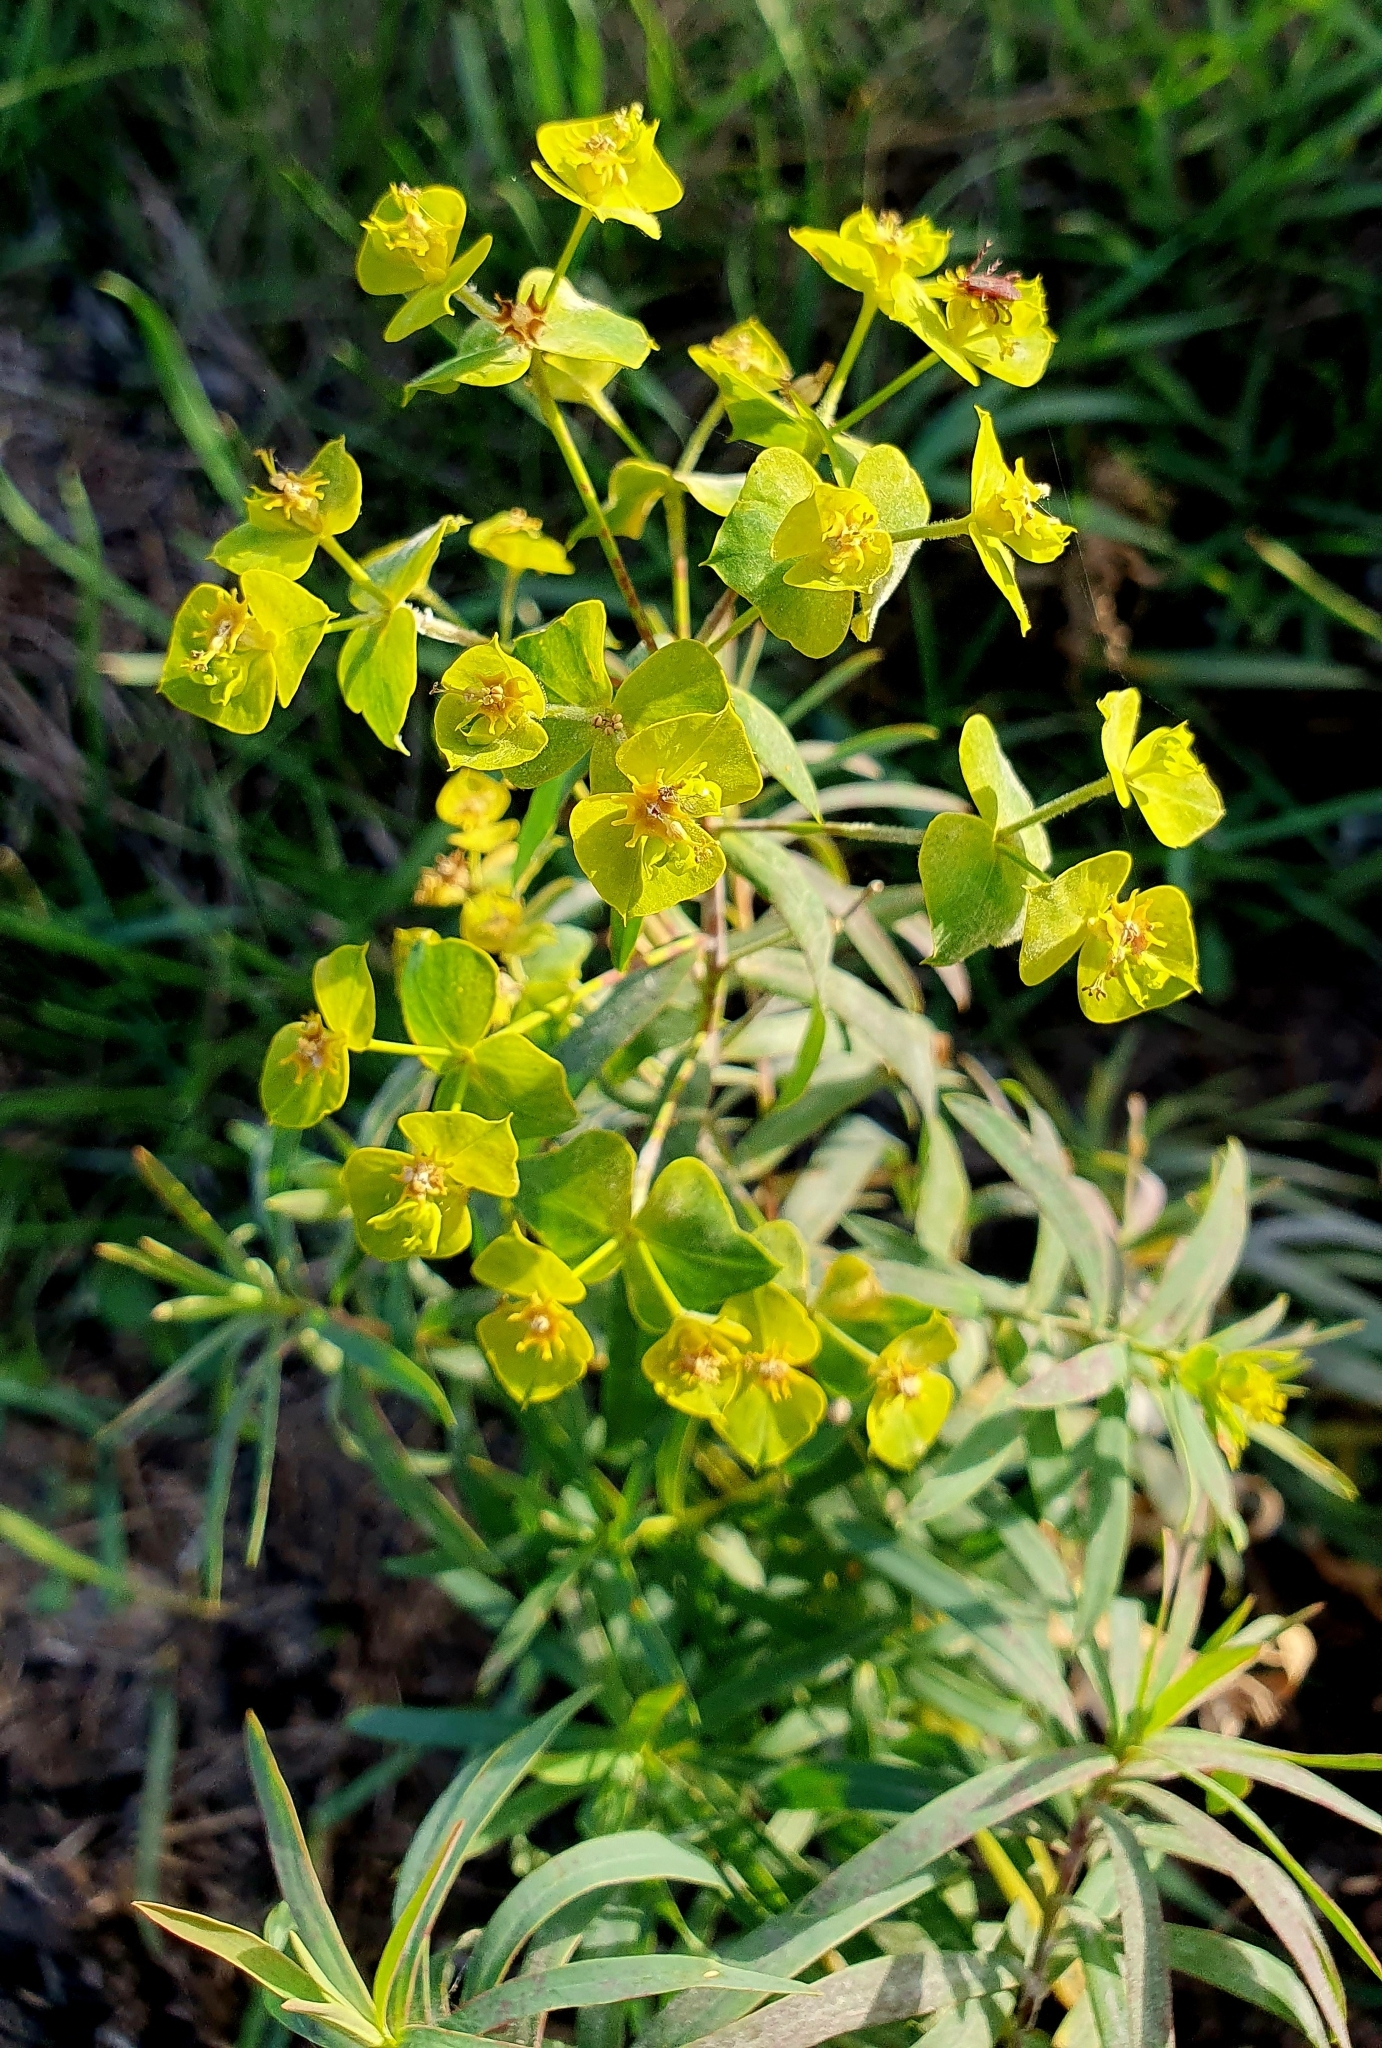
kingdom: Plantae
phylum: Tracheophyta
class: Magnoliopsida
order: Malpighiales
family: Euphorbiaceae
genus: Euphorbia
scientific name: Euphorbia virgata
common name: Leafy spurge
